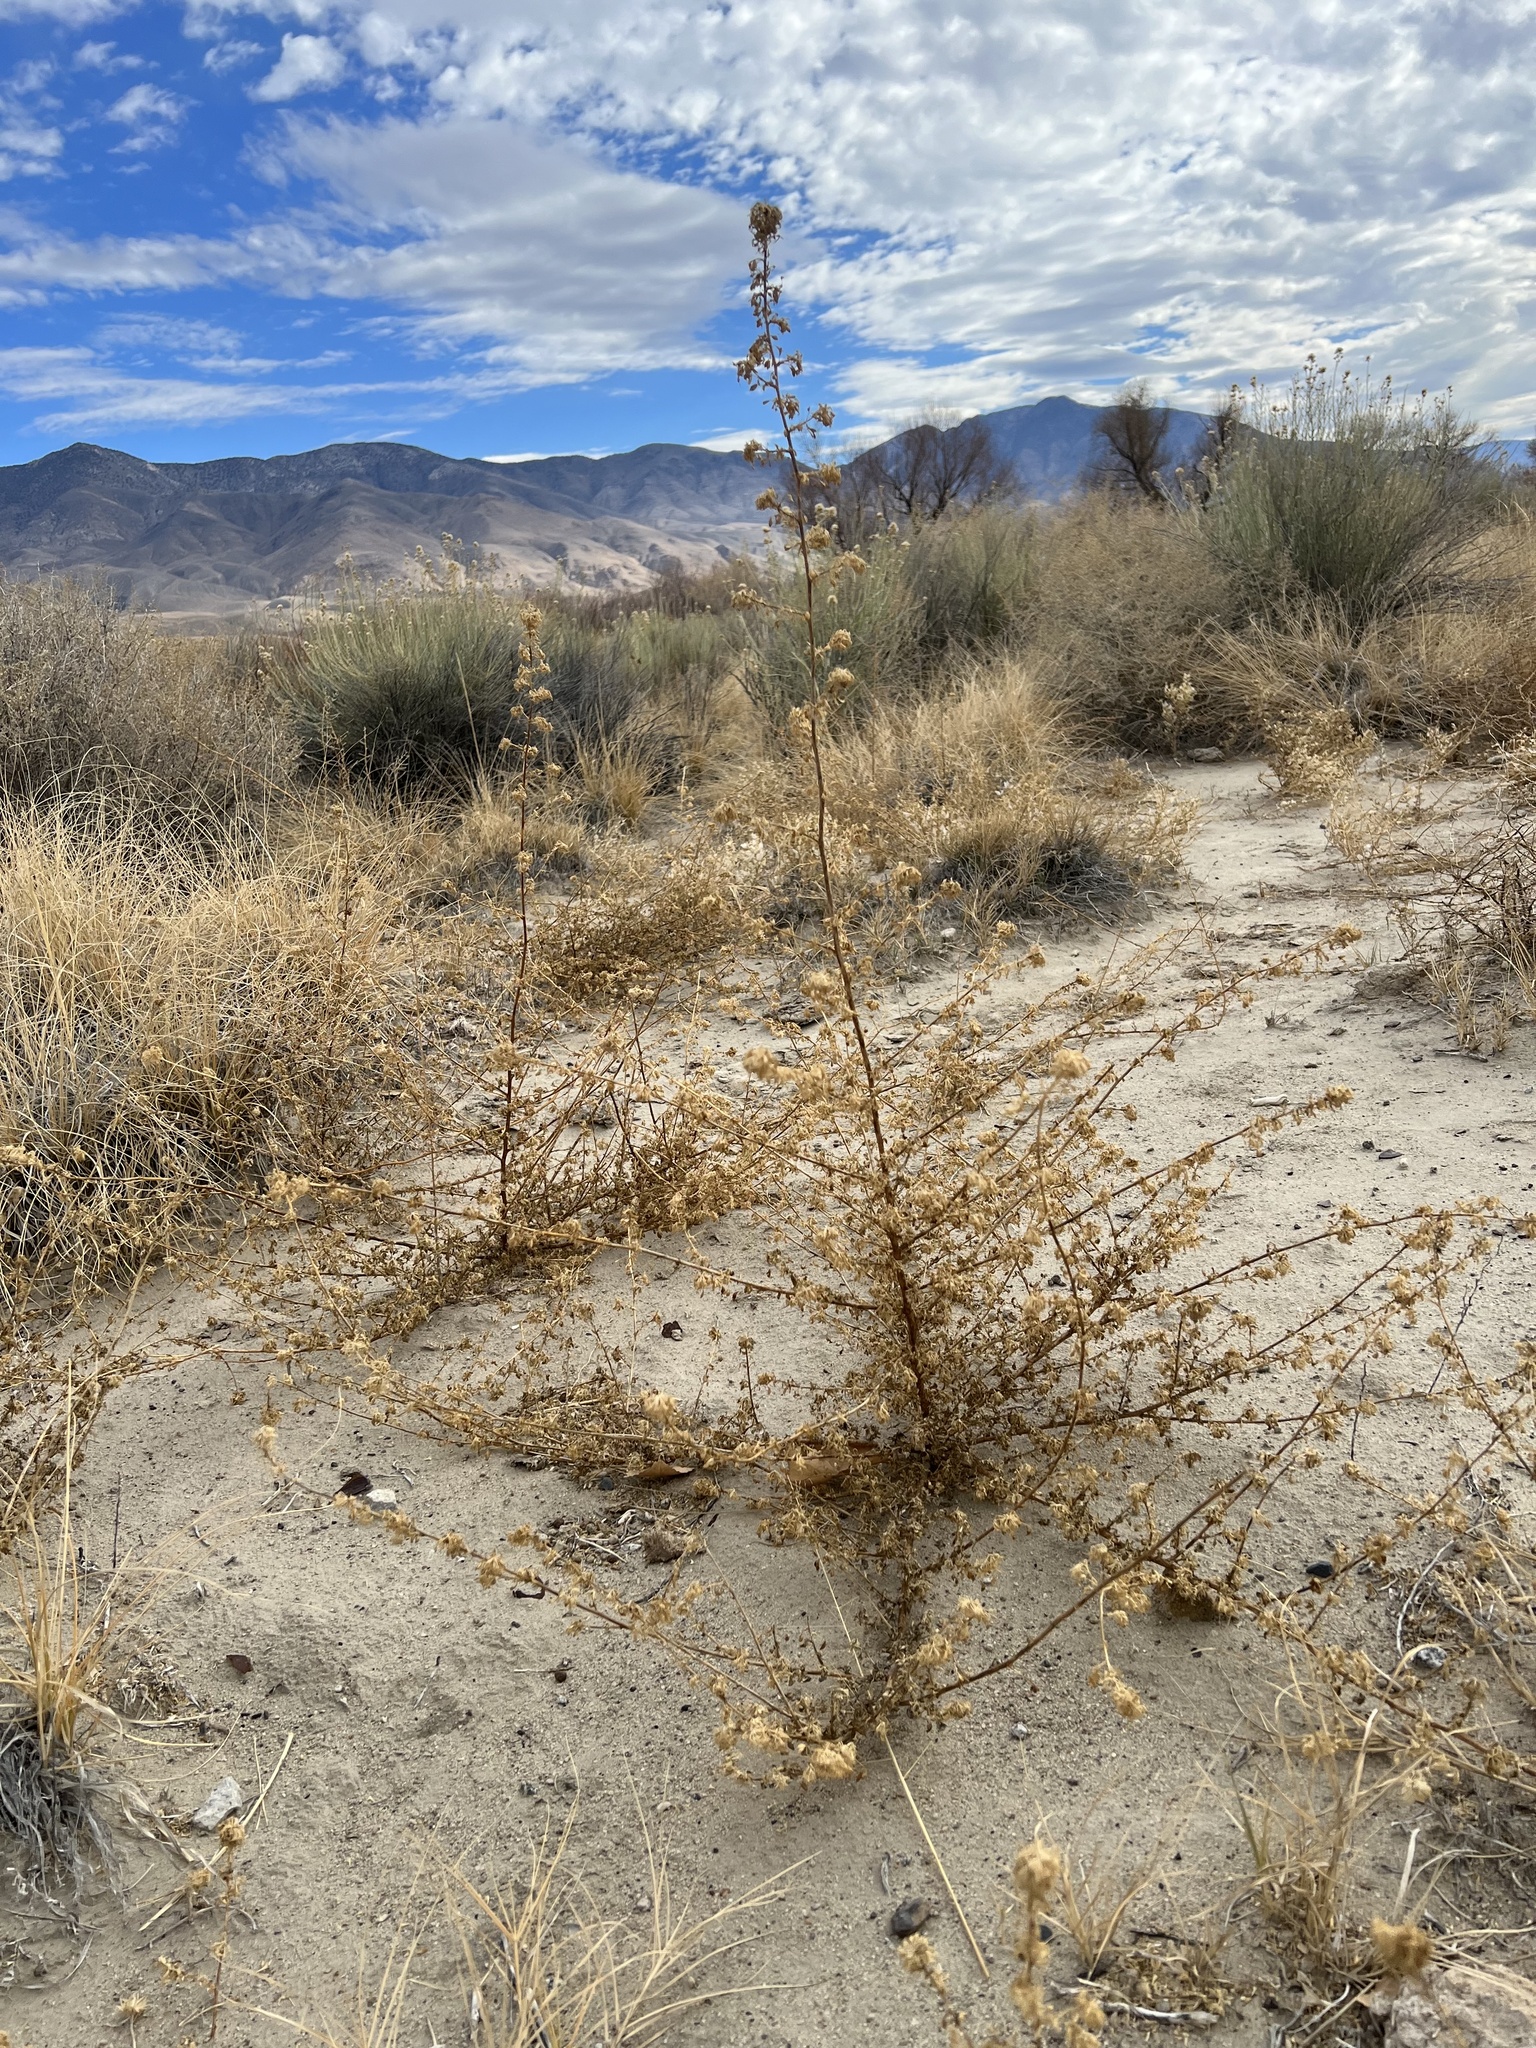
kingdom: Plantae
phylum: Tracheophyta
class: Magnoliopsida
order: Brassicales
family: Cleomaceae
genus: Cleomella
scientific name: Cleomella obtusifolia
